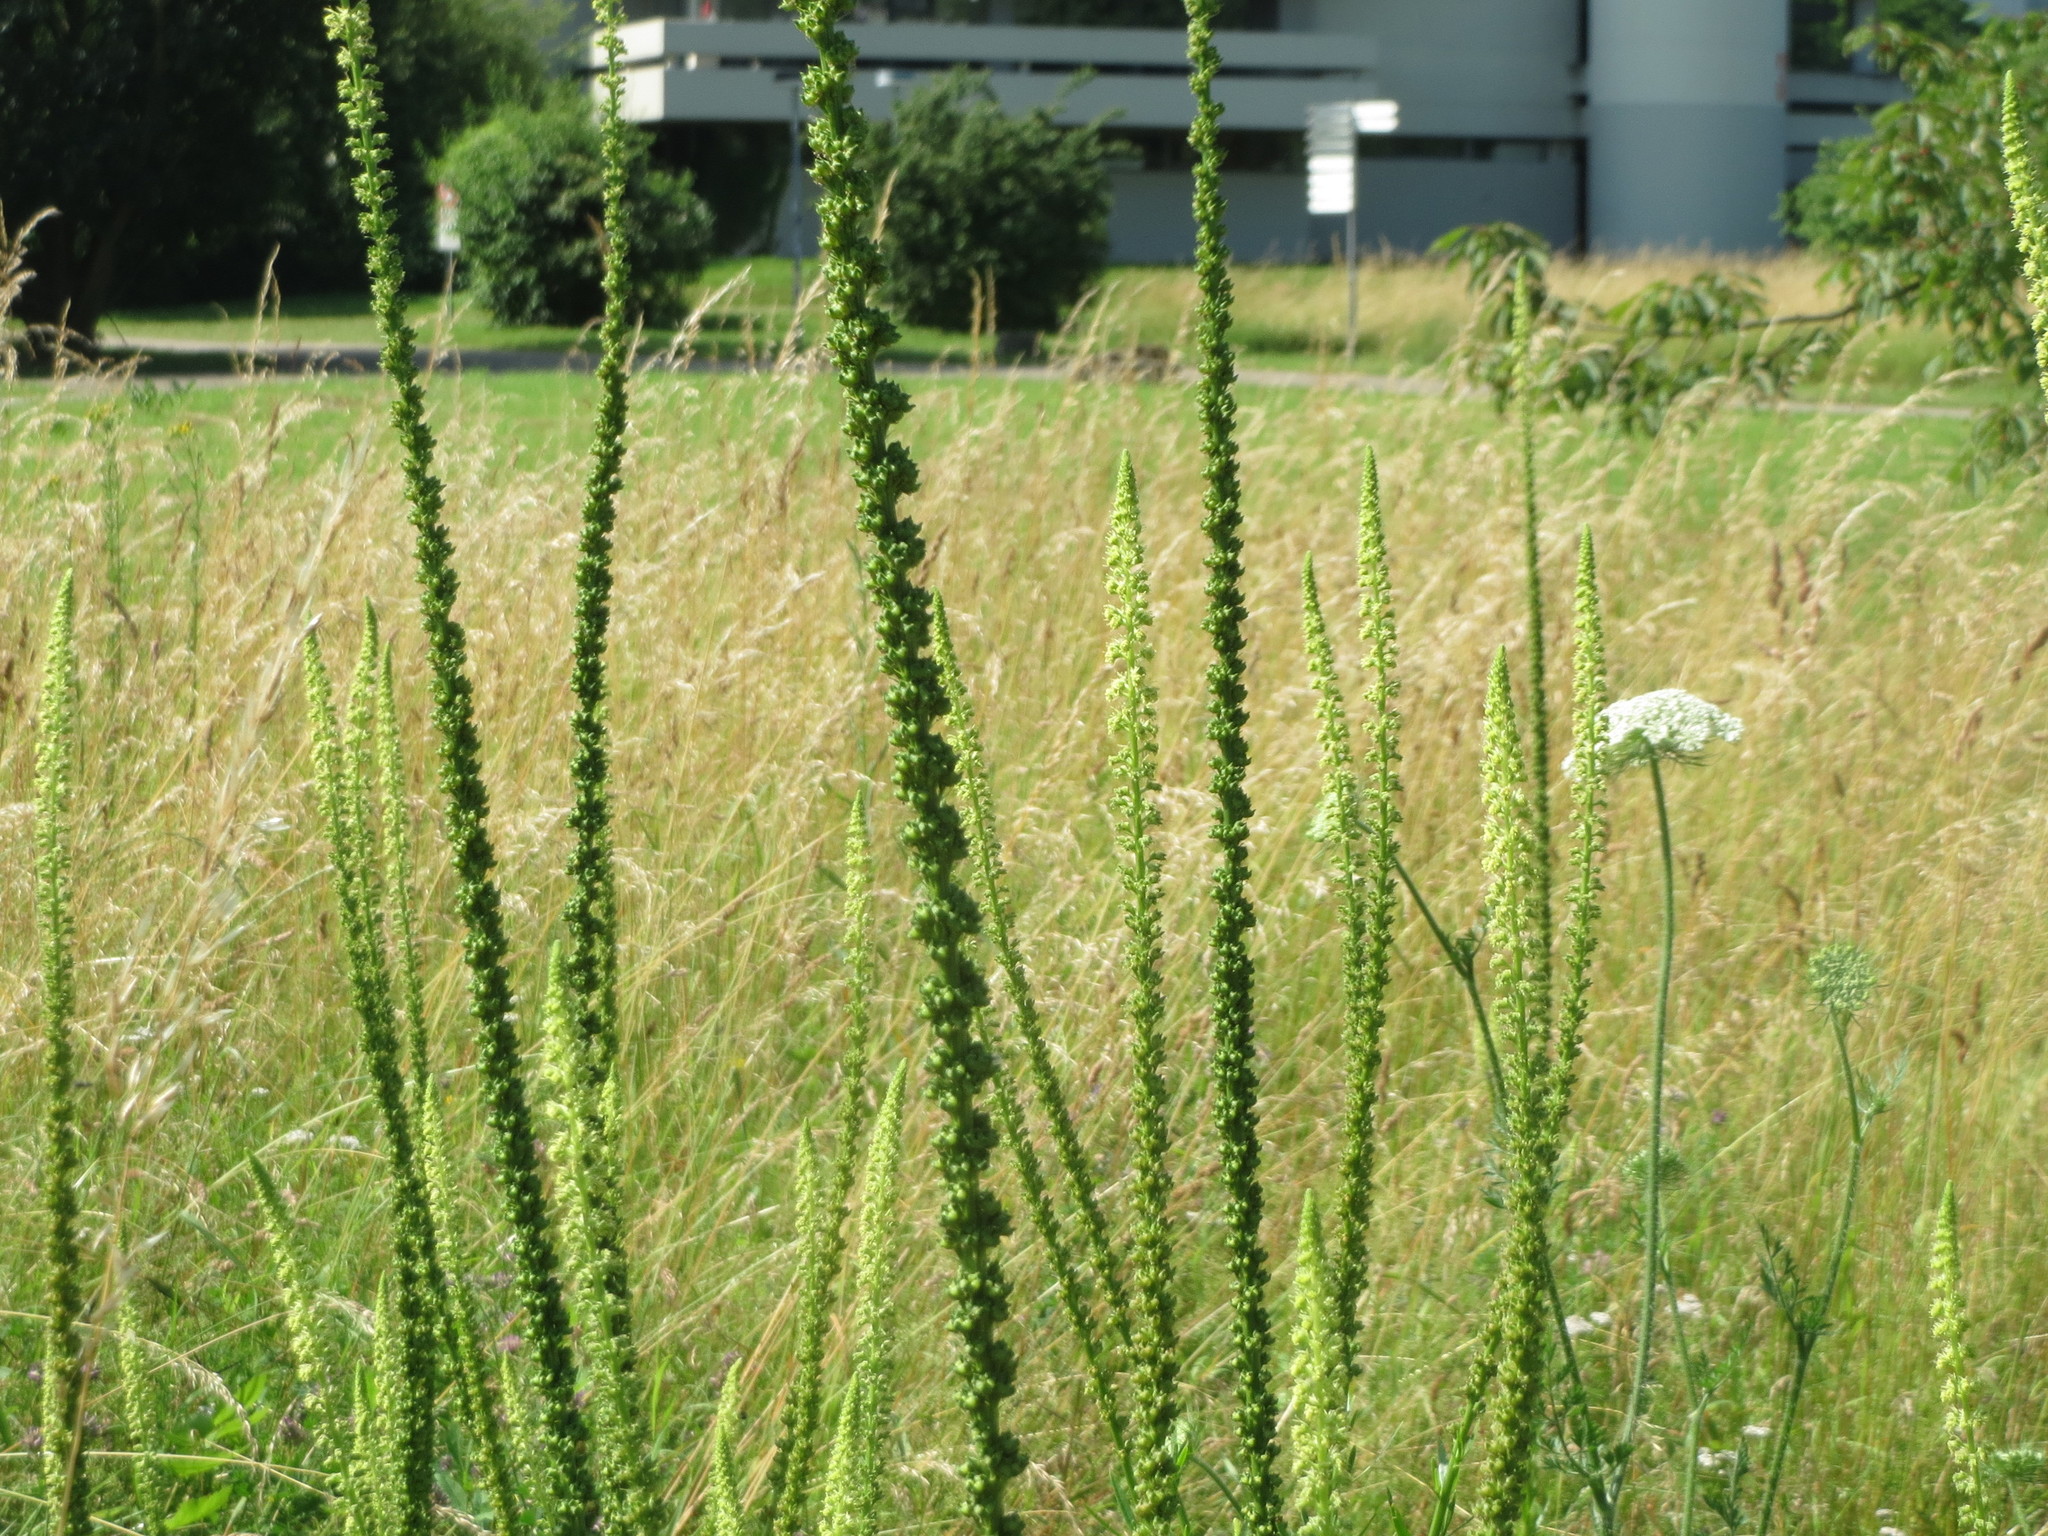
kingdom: Plantae
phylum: Tracheophyta
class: Magnoliopsida
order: Brassicales
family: Resedaceae
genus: Reseda
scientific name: Reseda luteola
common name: Weld
